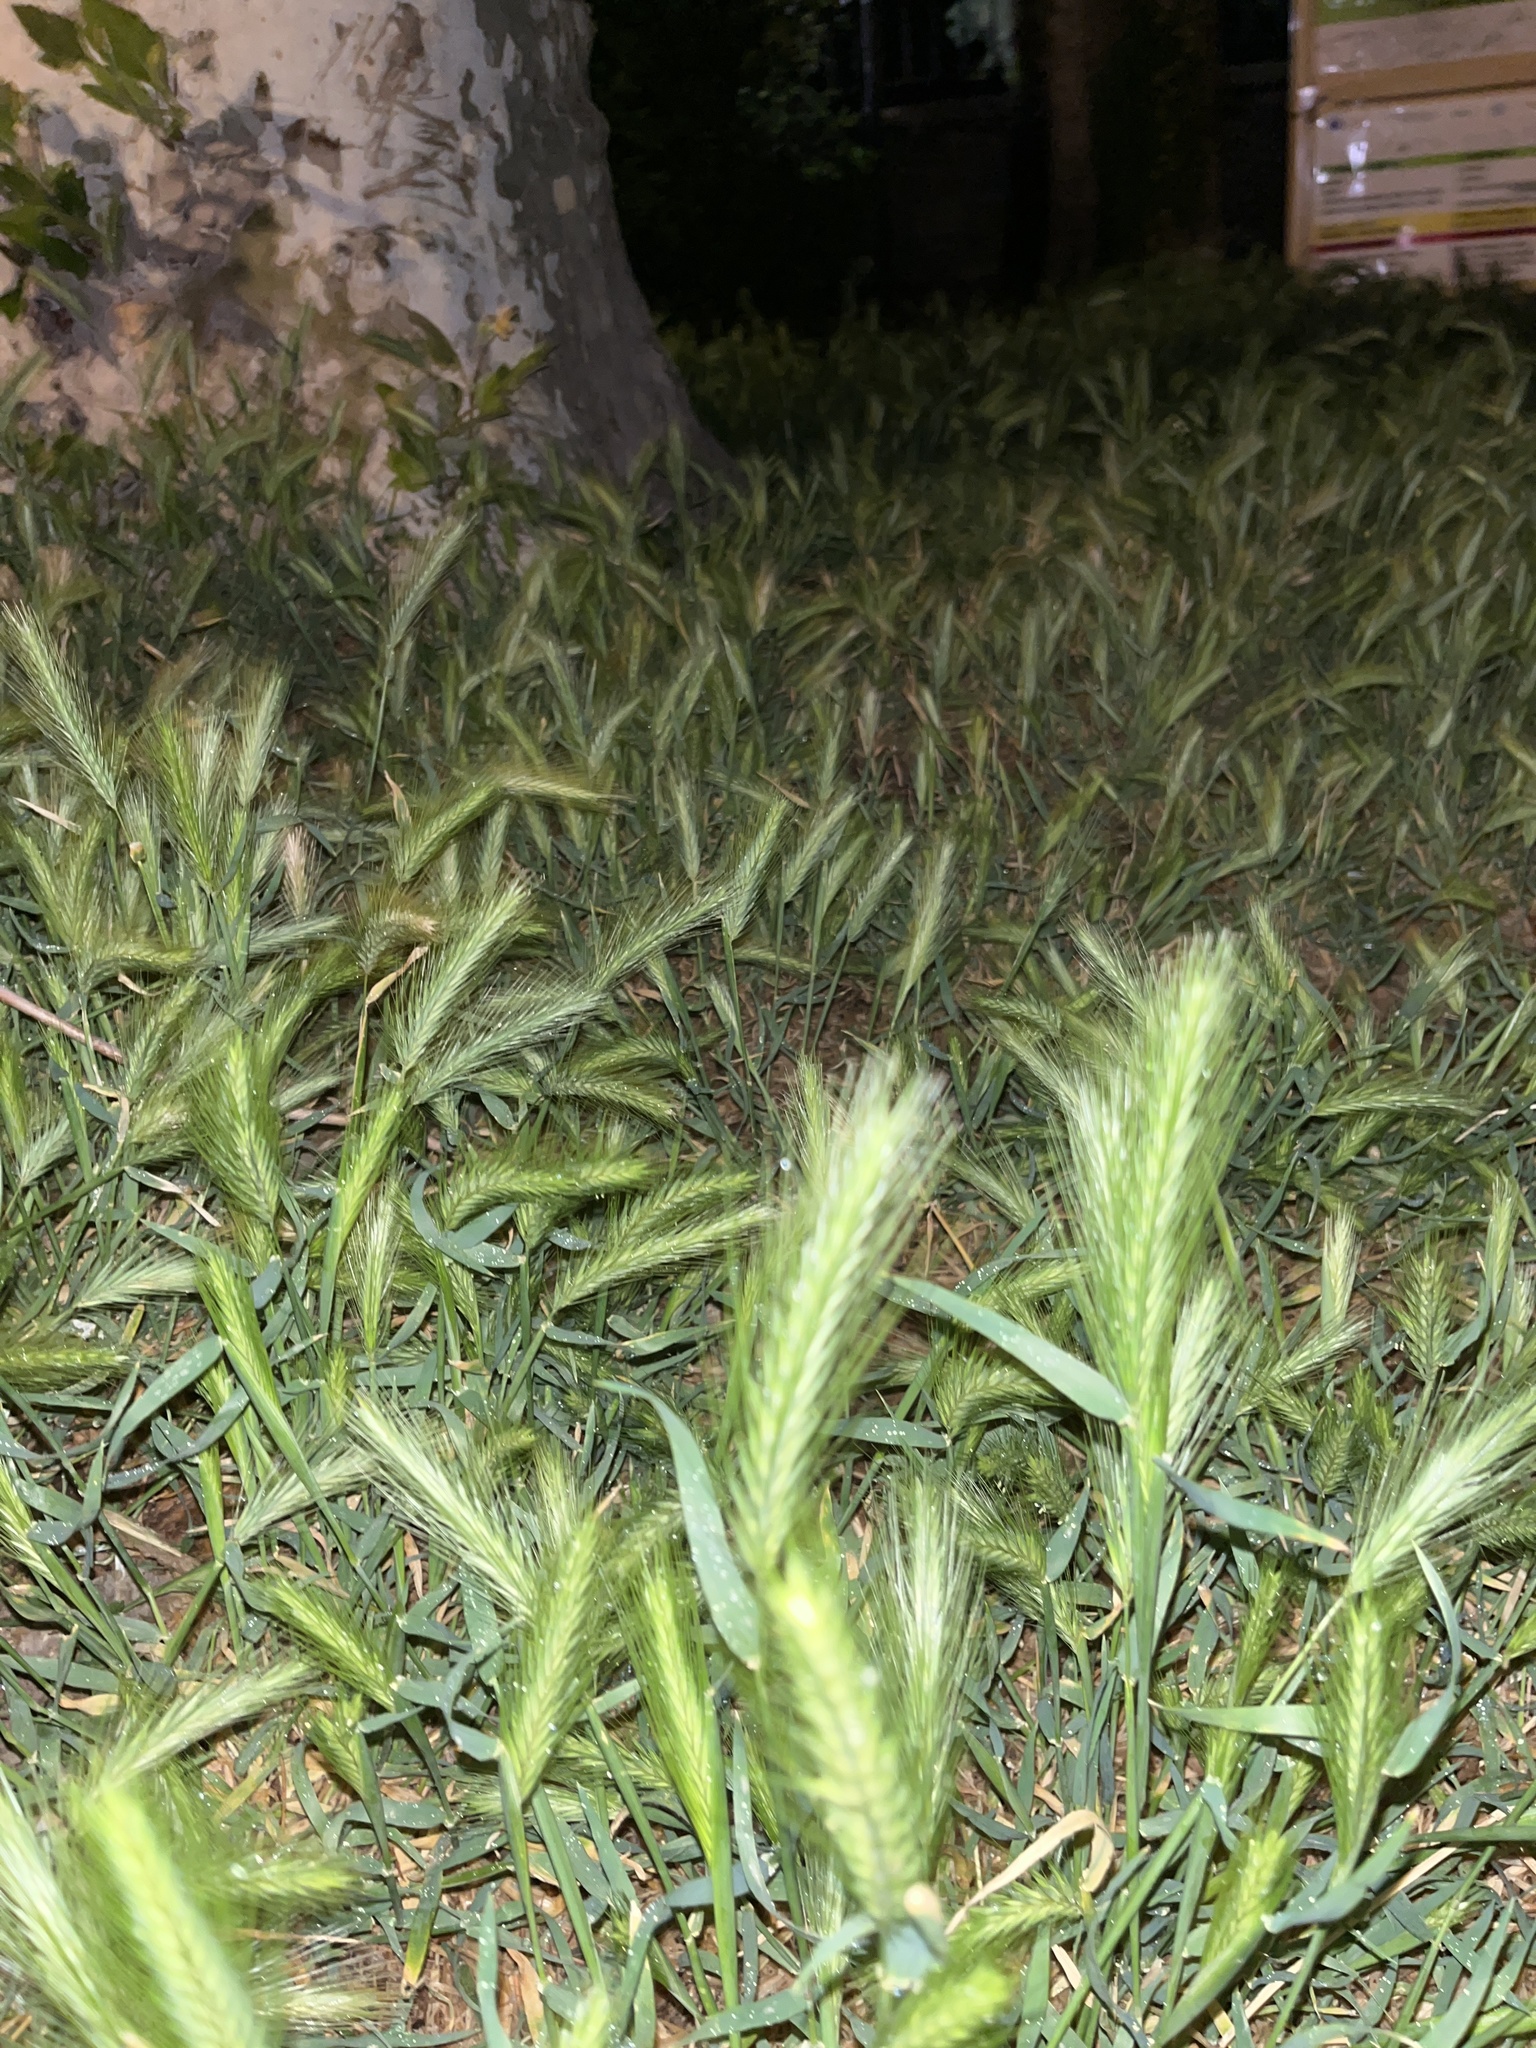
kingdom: Plantae
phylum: Tracheophyta
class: Liliopsida
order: Poales
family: Poaceae
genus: Hordeum
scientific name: Hordeum murinum
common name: Wall barley
